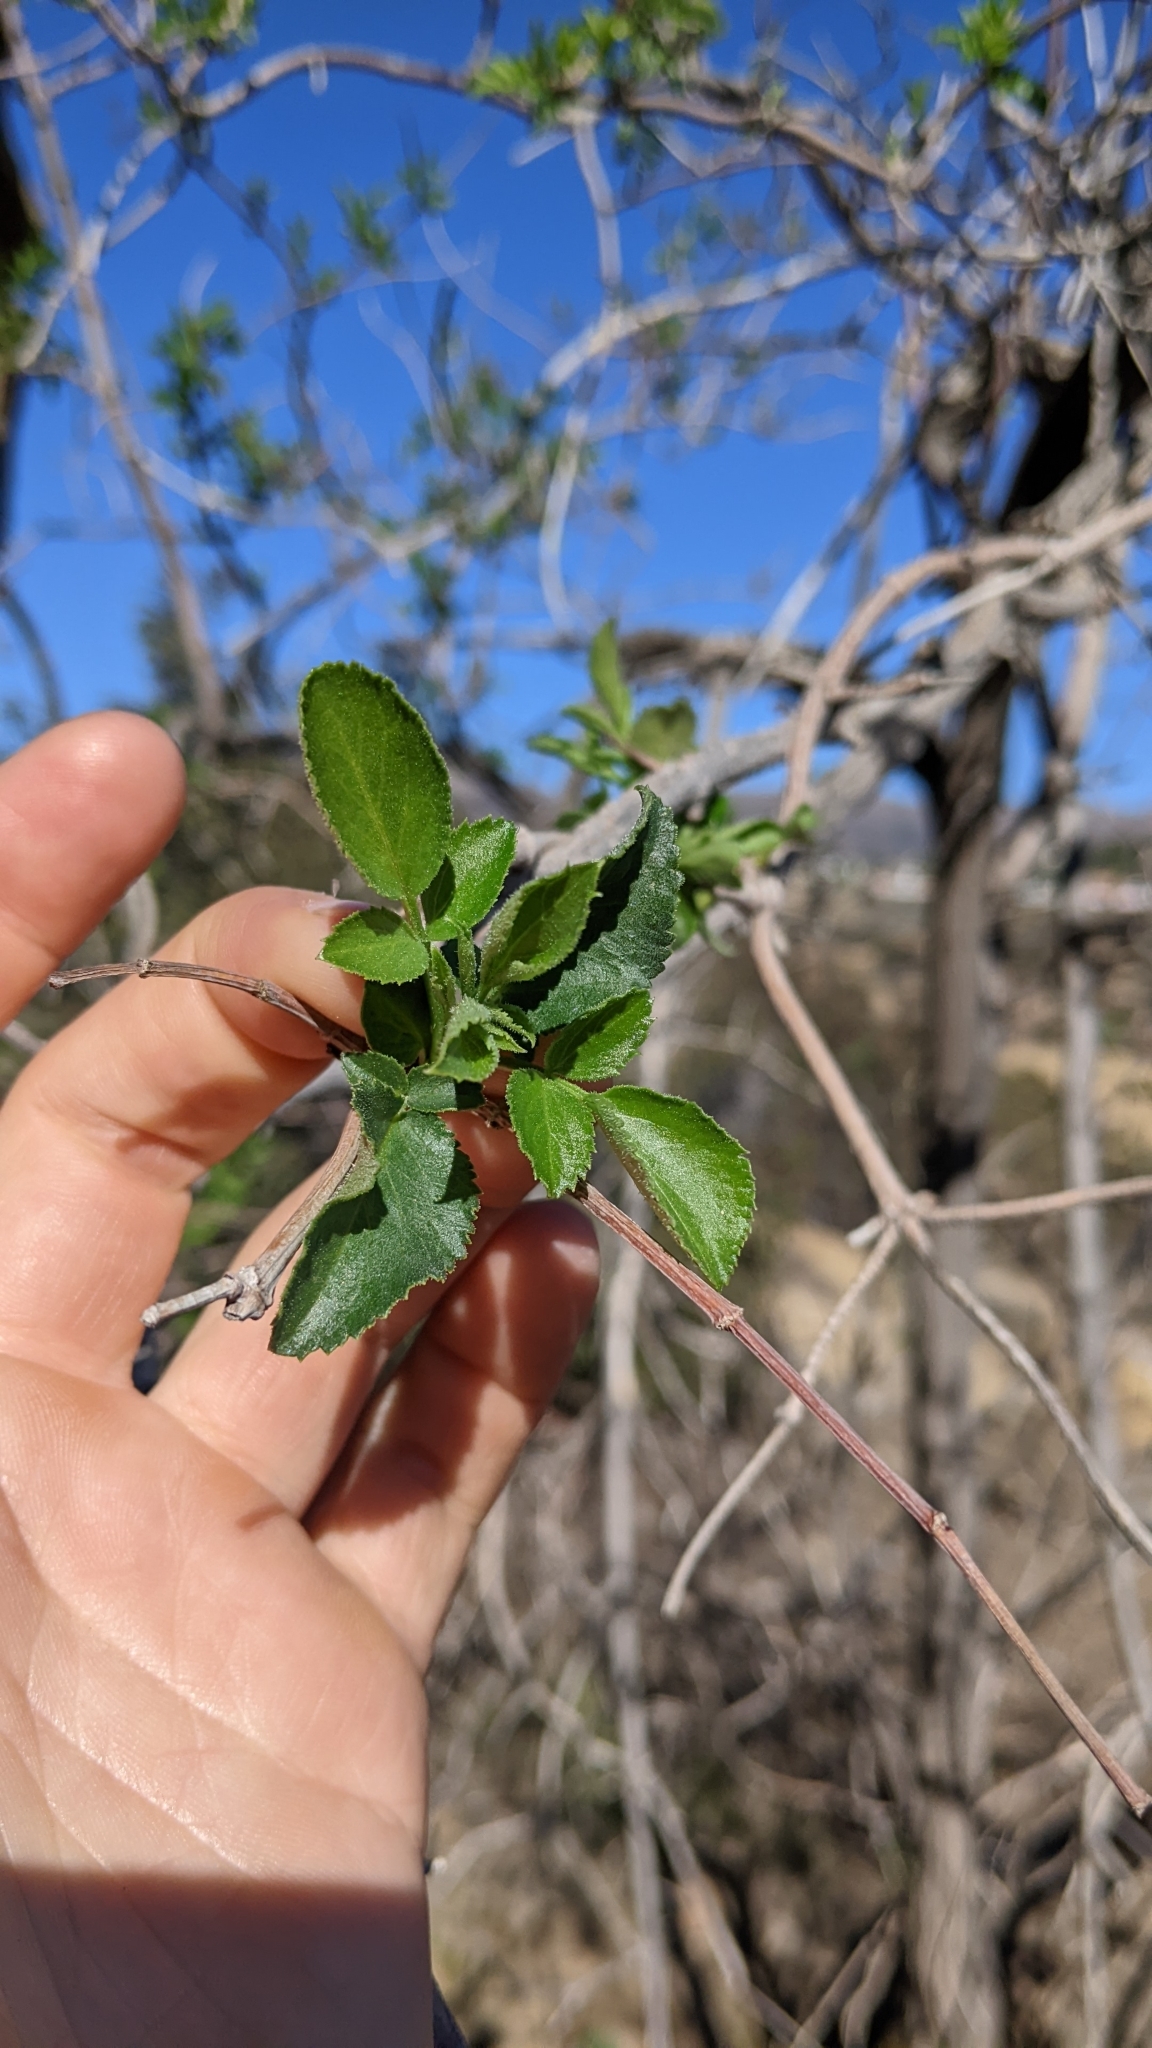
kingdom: Plantae
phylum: Tracheophyta
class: Magnoliopsida
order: Dipsacales
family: Viburnaceae
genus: Sambucus
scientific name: Sambucus cerulea
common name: Blue elder
